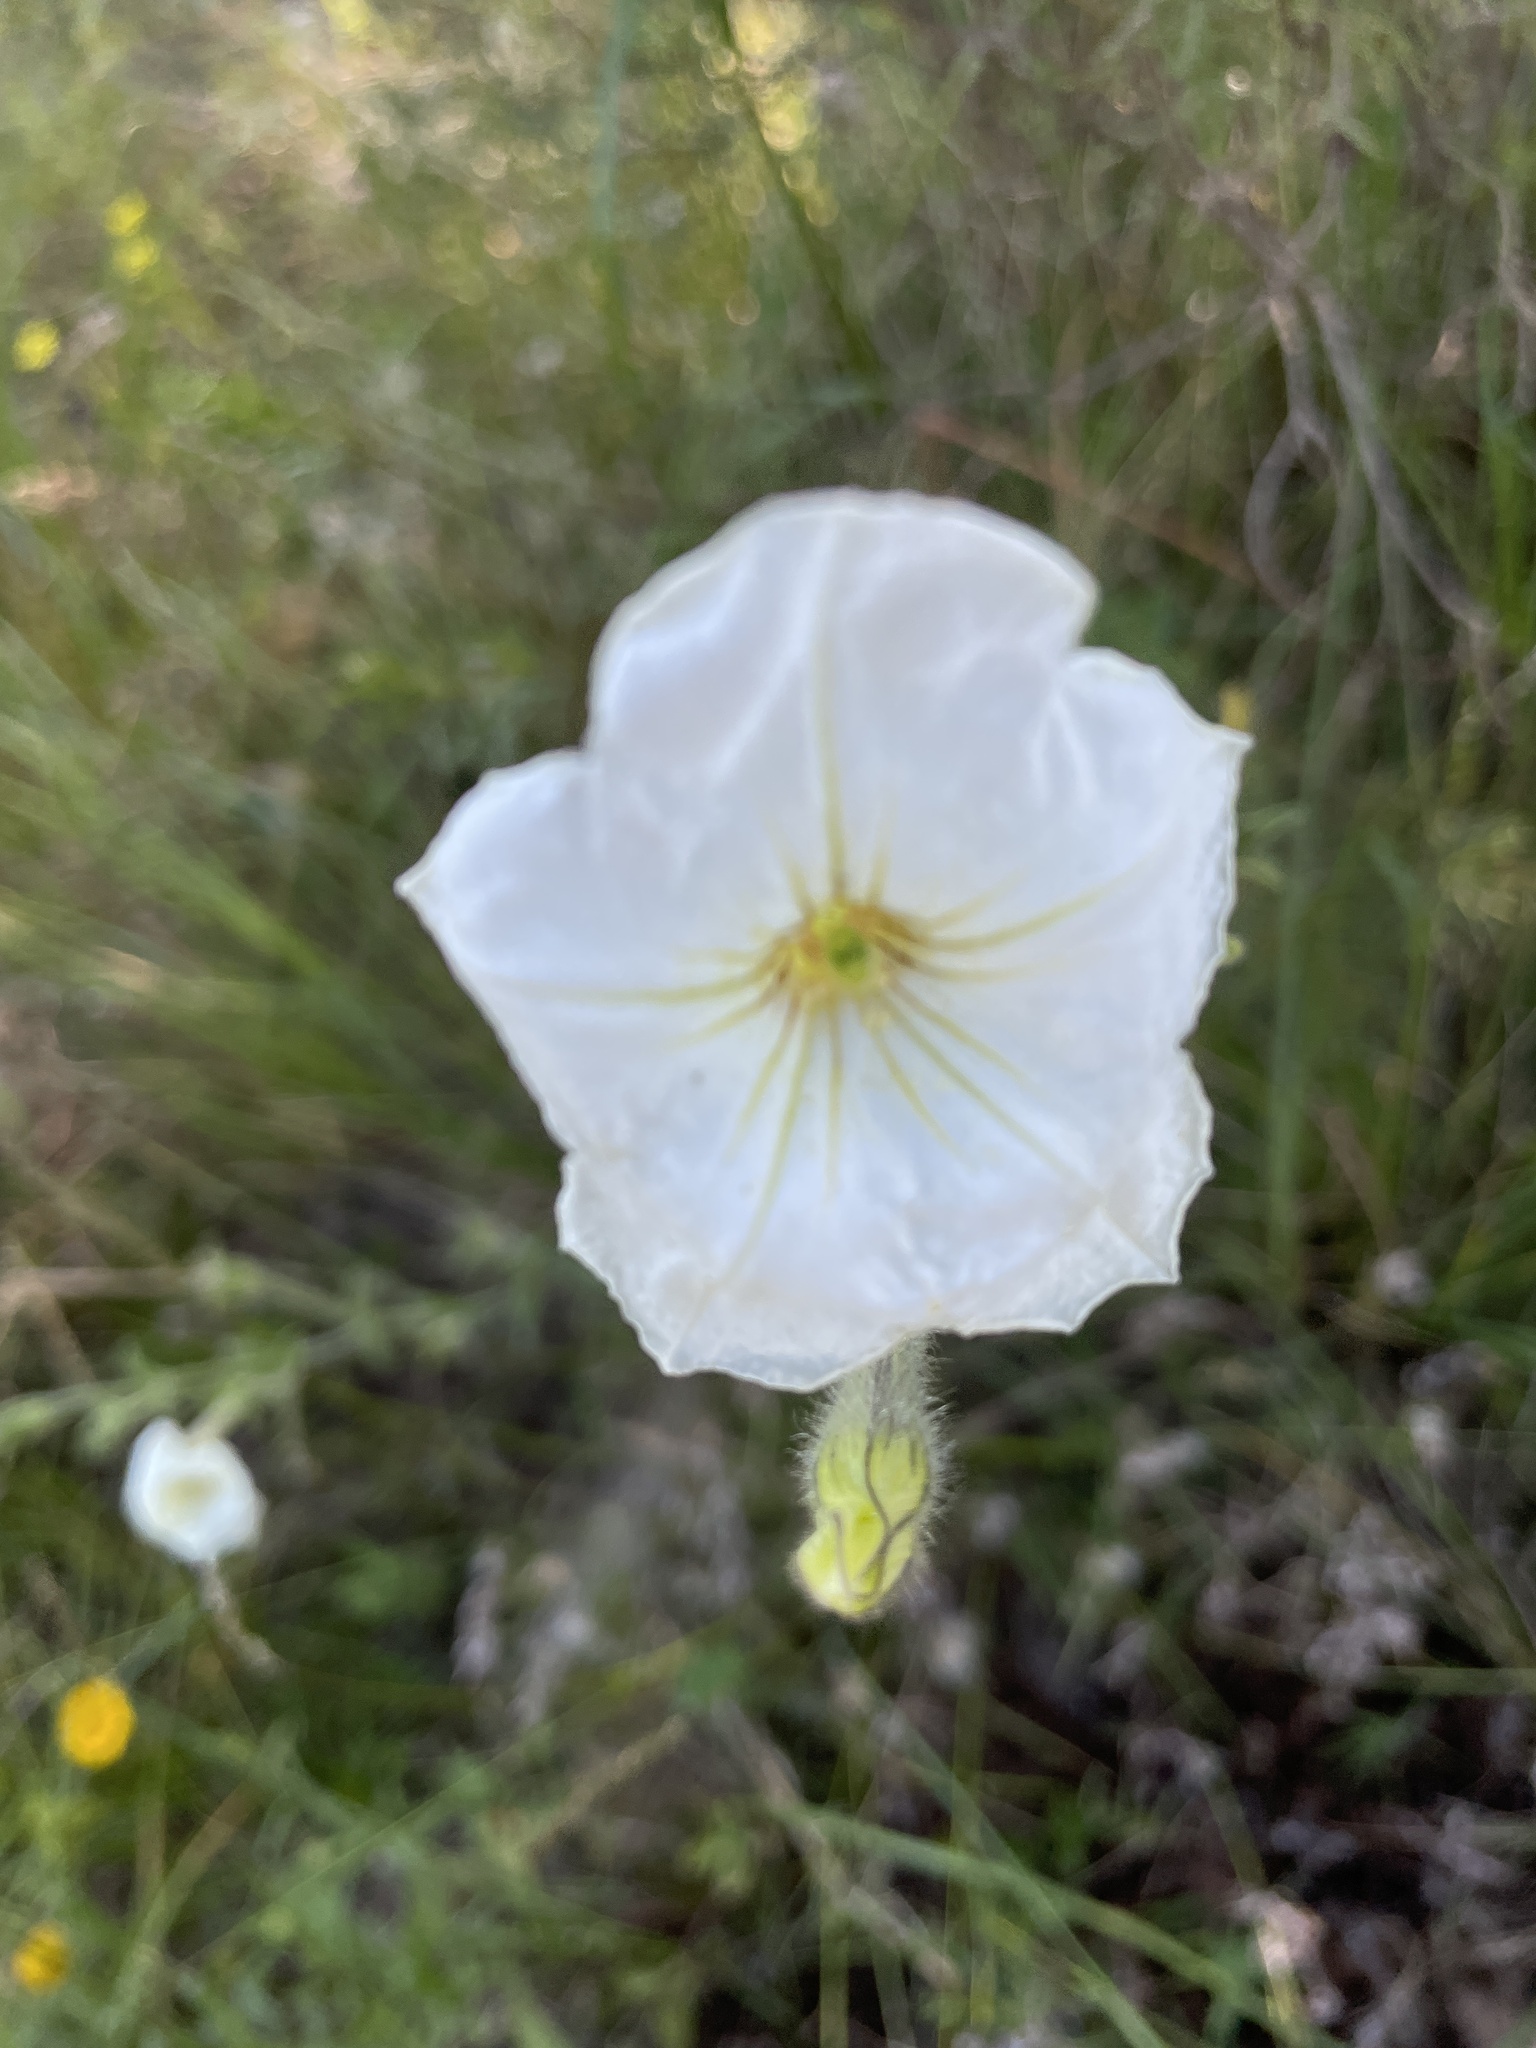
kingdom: Plantae
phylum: Tracheophyta
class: Magnoliopsida
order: Solanales
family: Solanaceae
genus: Petunia
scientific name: Petunia axillaris
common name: Large white petunia
